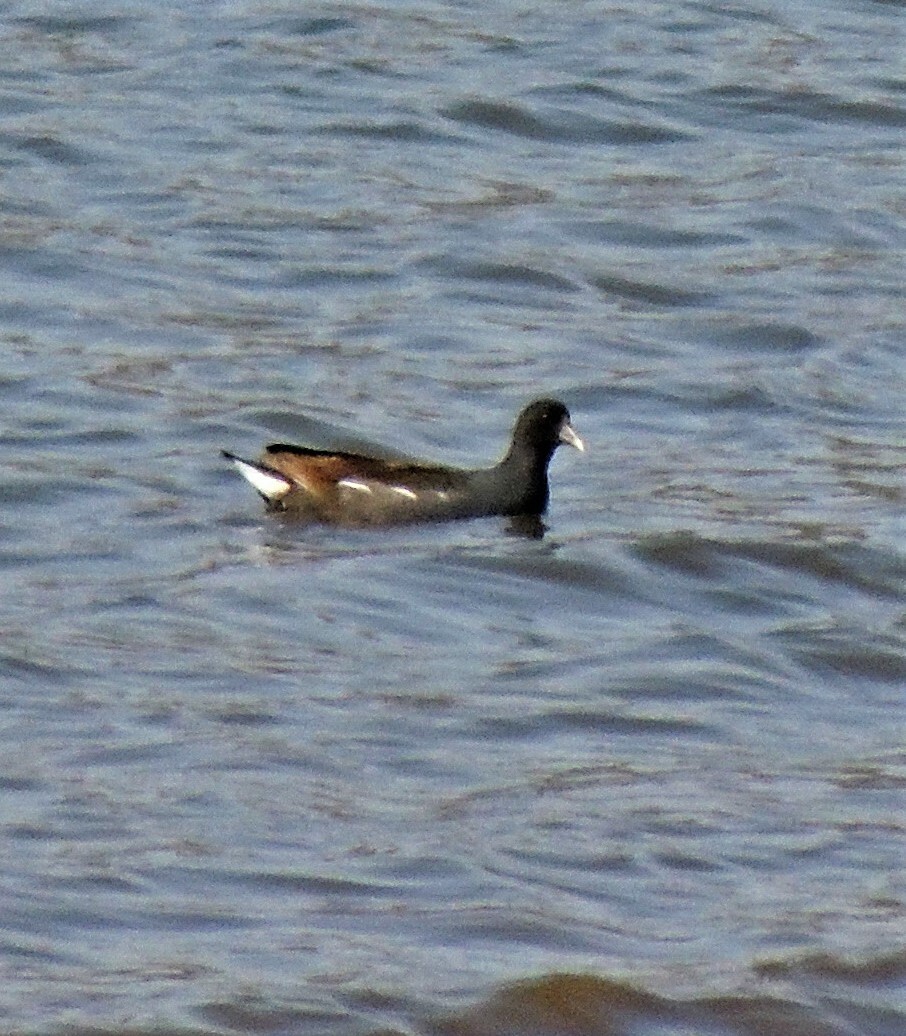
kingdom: Animalia
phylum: Chordata
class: Aves
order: Gruiformes
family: Rallidae
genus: Gallinula
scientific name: Gallinula chloropus
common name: Common moorhen
